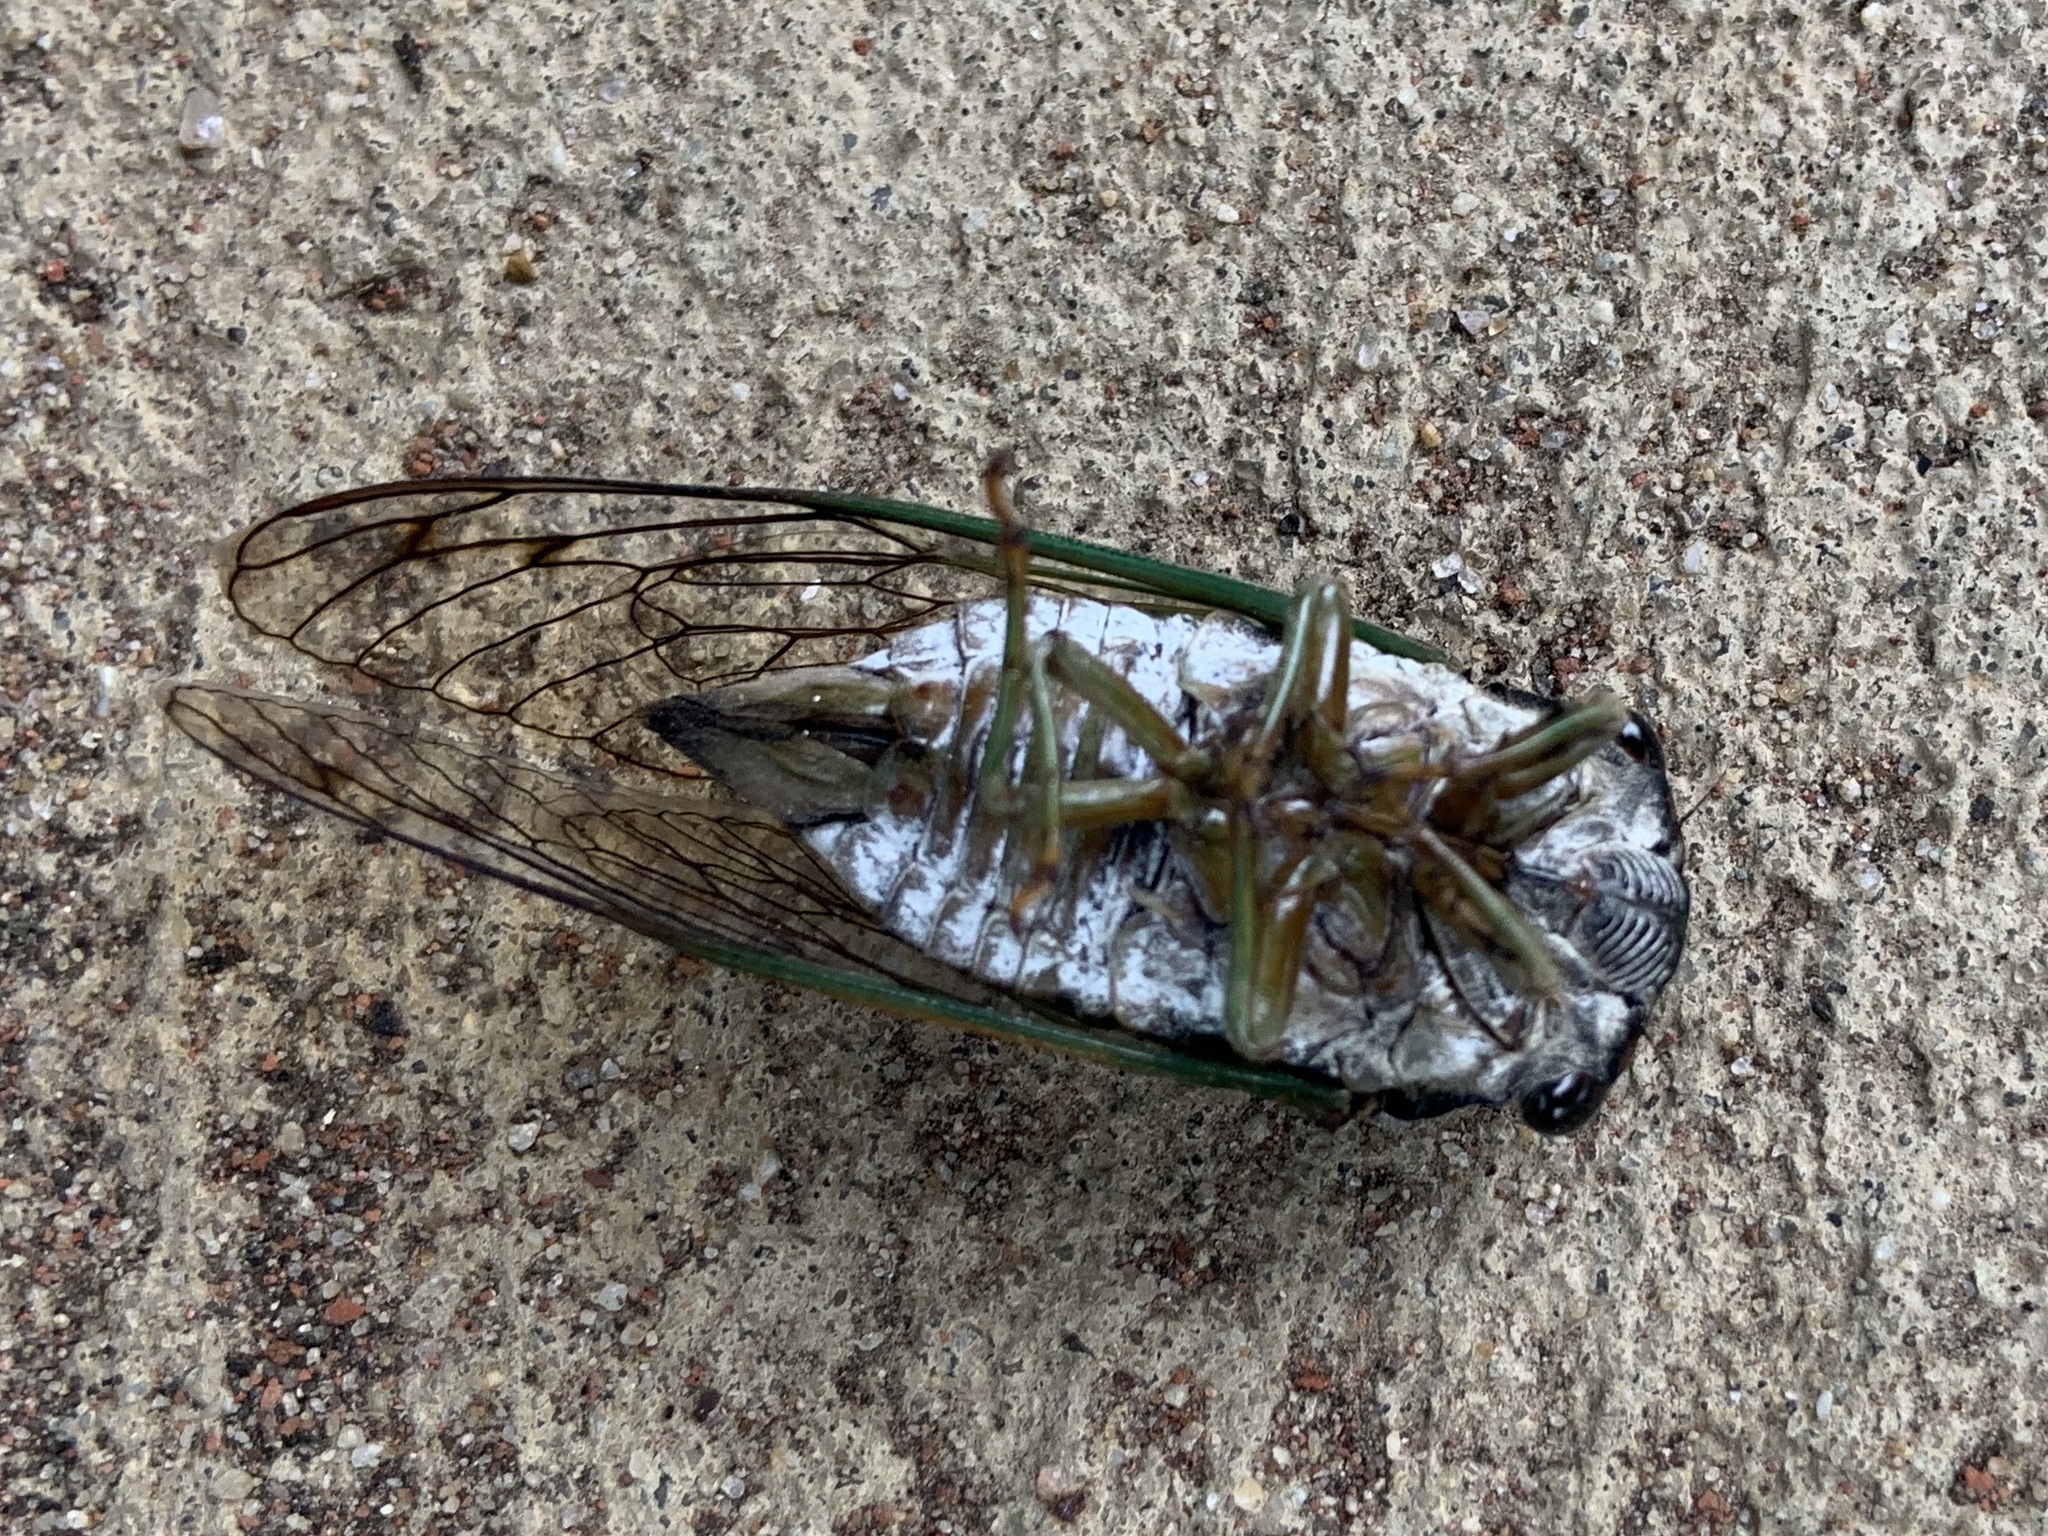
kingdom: Animalia
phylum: Arthropoda
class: Insecta
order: Hemiptera
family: Cicadidae
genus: Neotibicen
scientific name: Neotibicen tibicen
